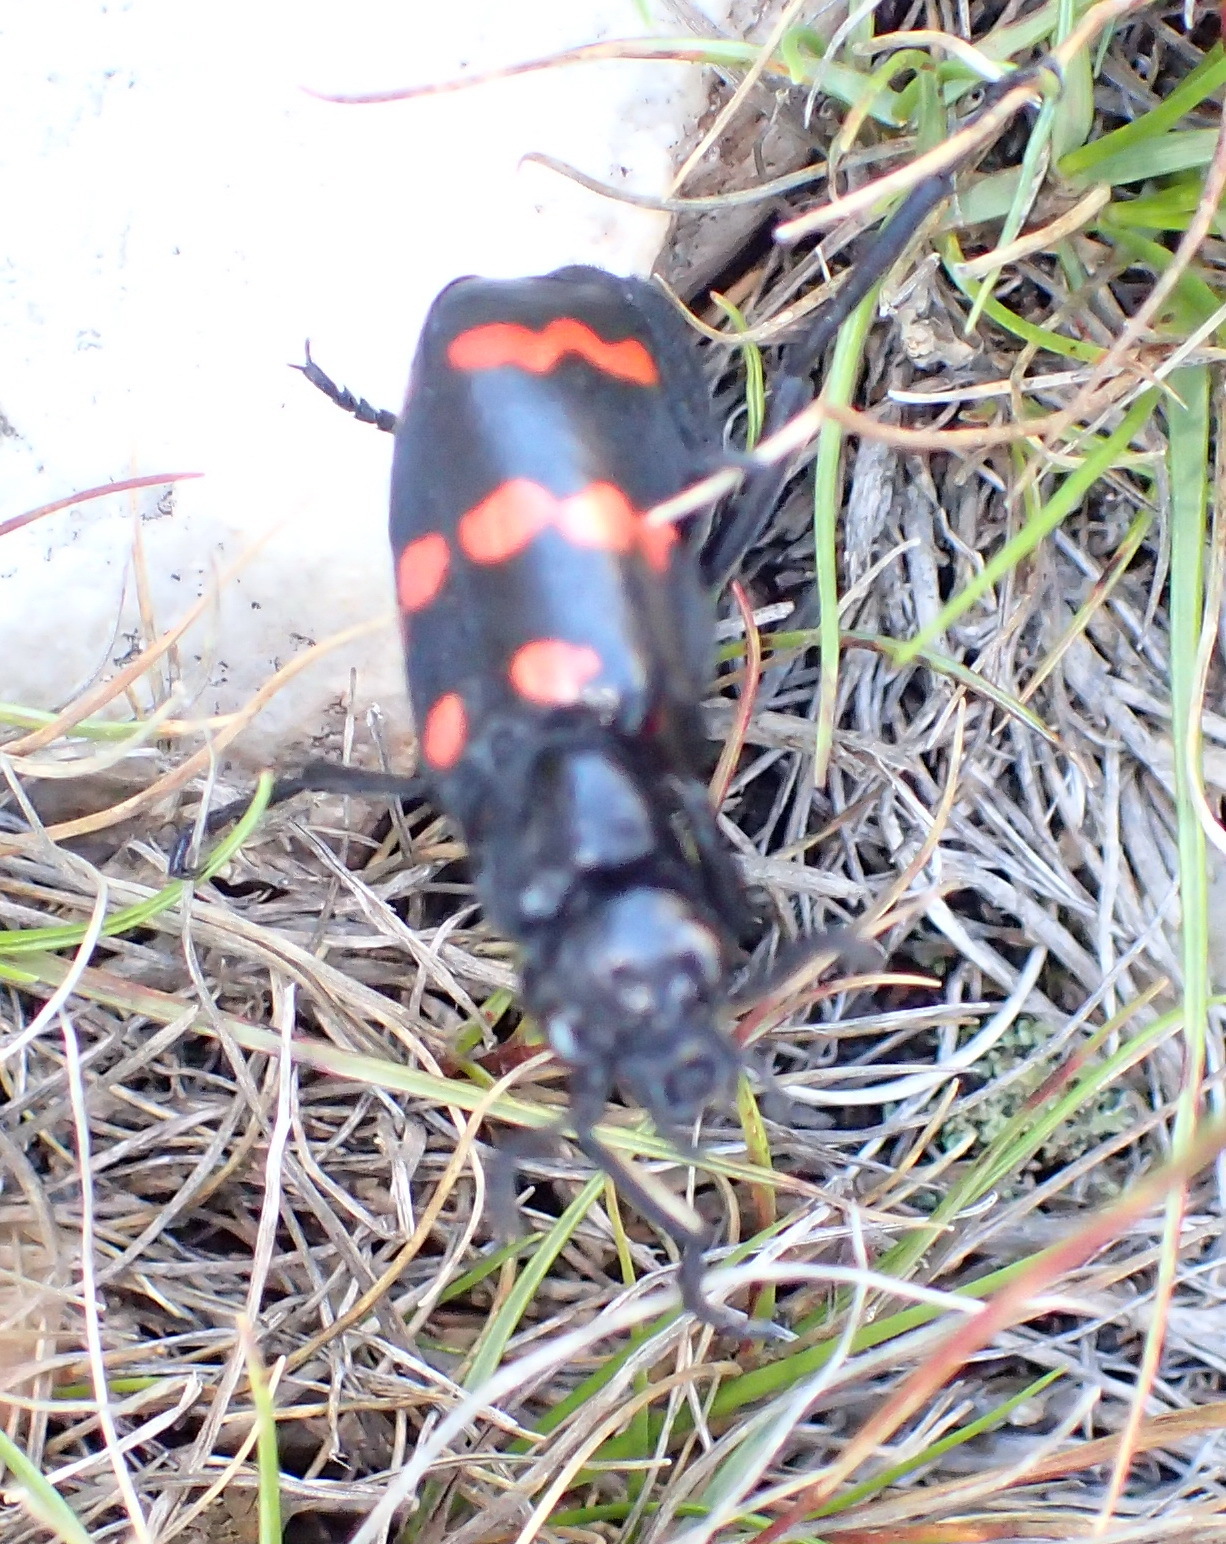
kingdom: Animalia
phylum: Arthropoda
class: Insecta
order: Coleoptera
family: Meloidae
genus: Hycleus
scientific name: Hycleus
